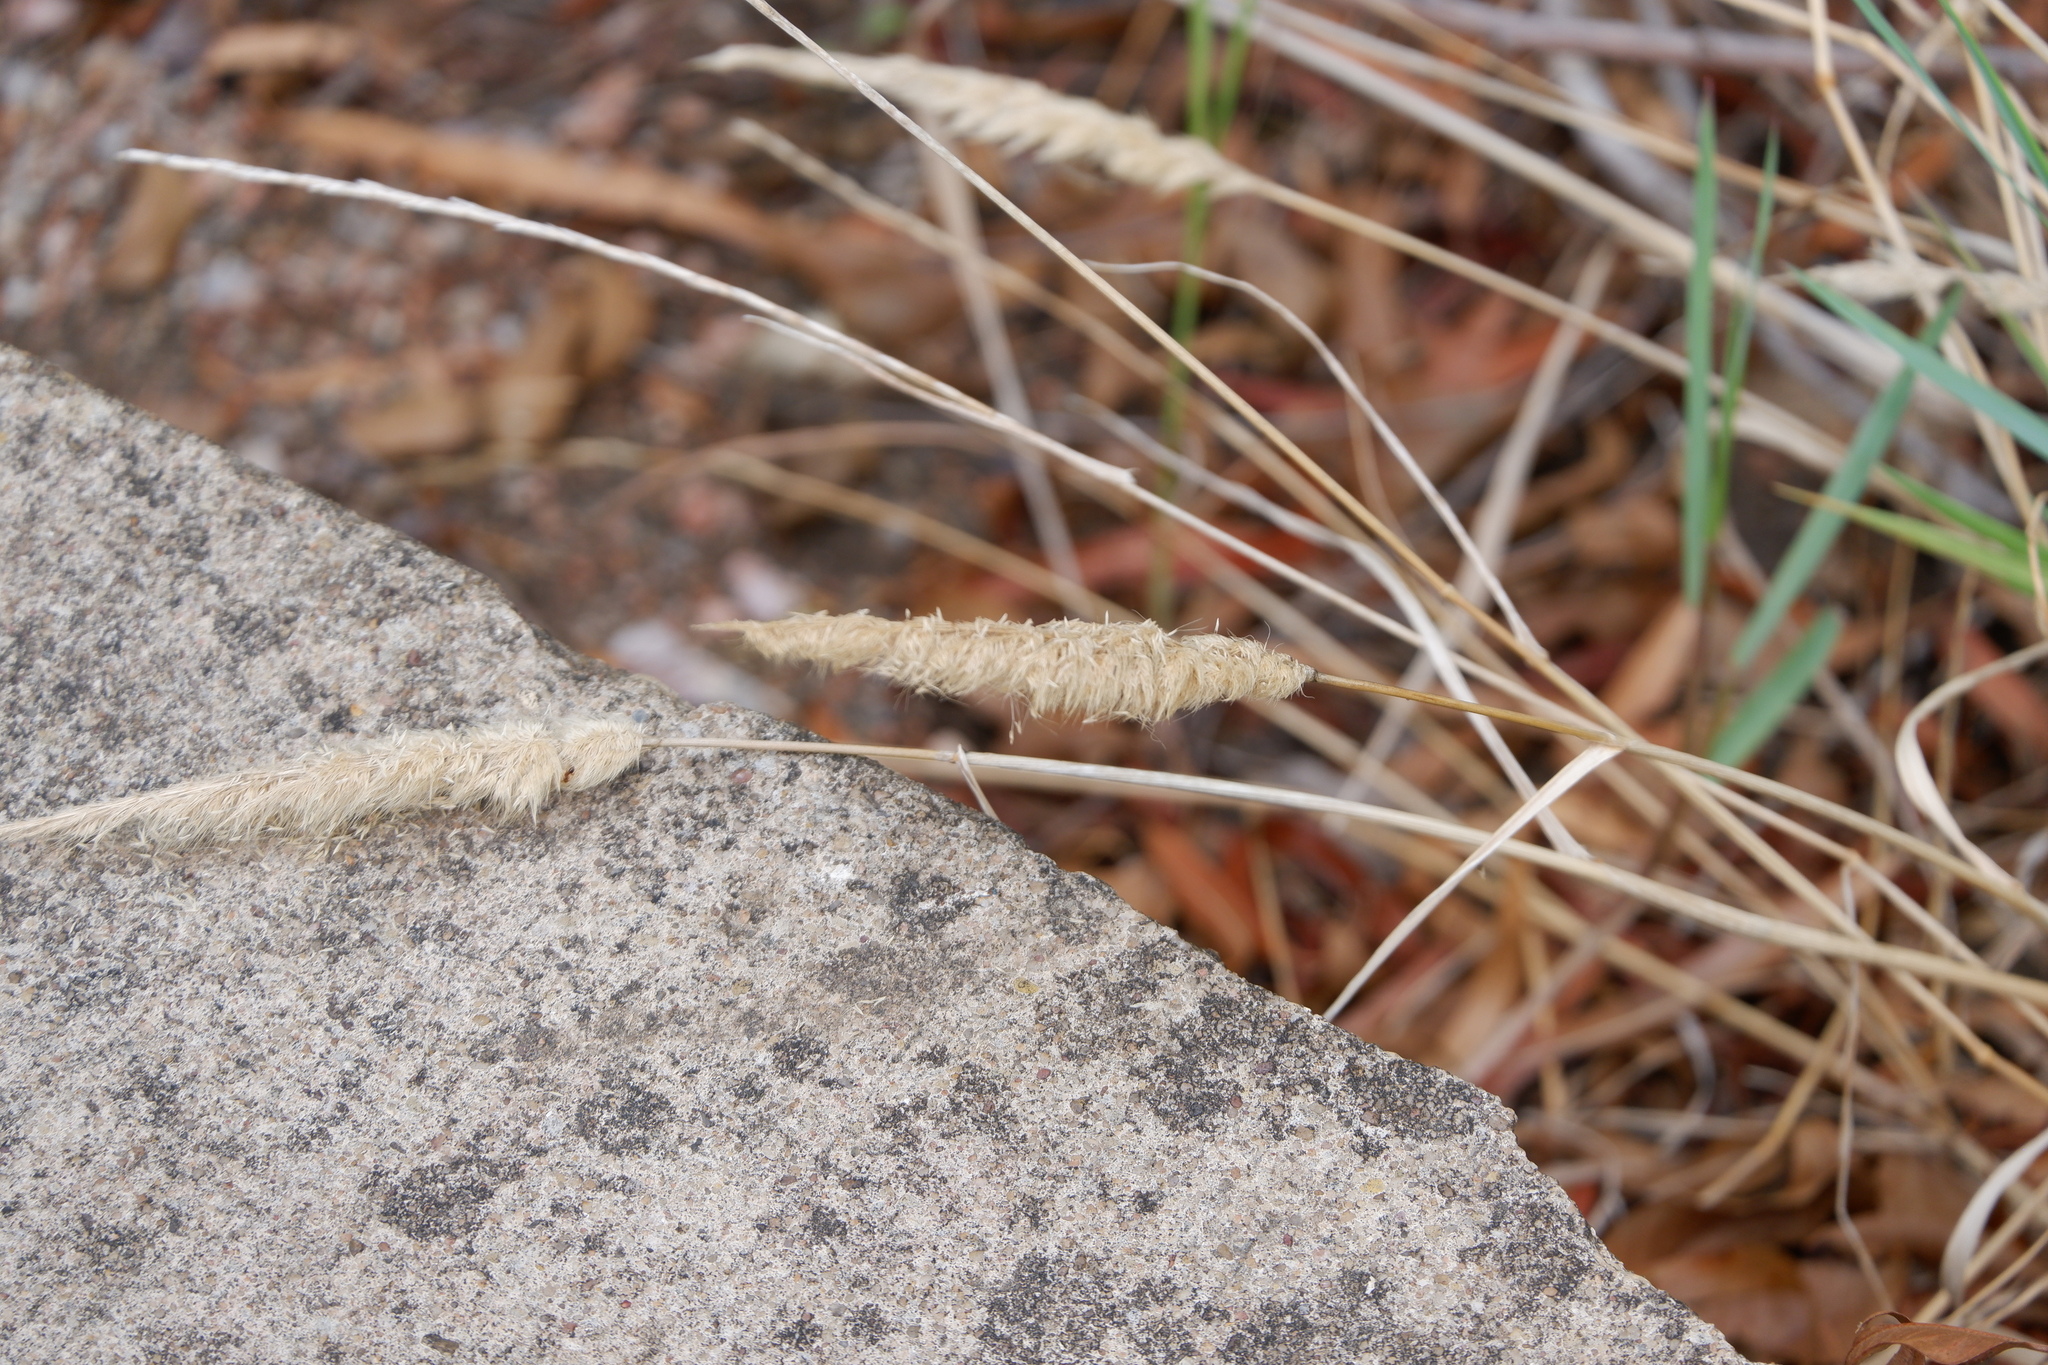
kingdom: Plantae
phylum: Tracheophyta
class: Liliopsida
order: Poales
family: Poaceae
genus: Polypogon
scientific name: Polypogon monspeliensis
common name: Annual rabbitsfoot grass
